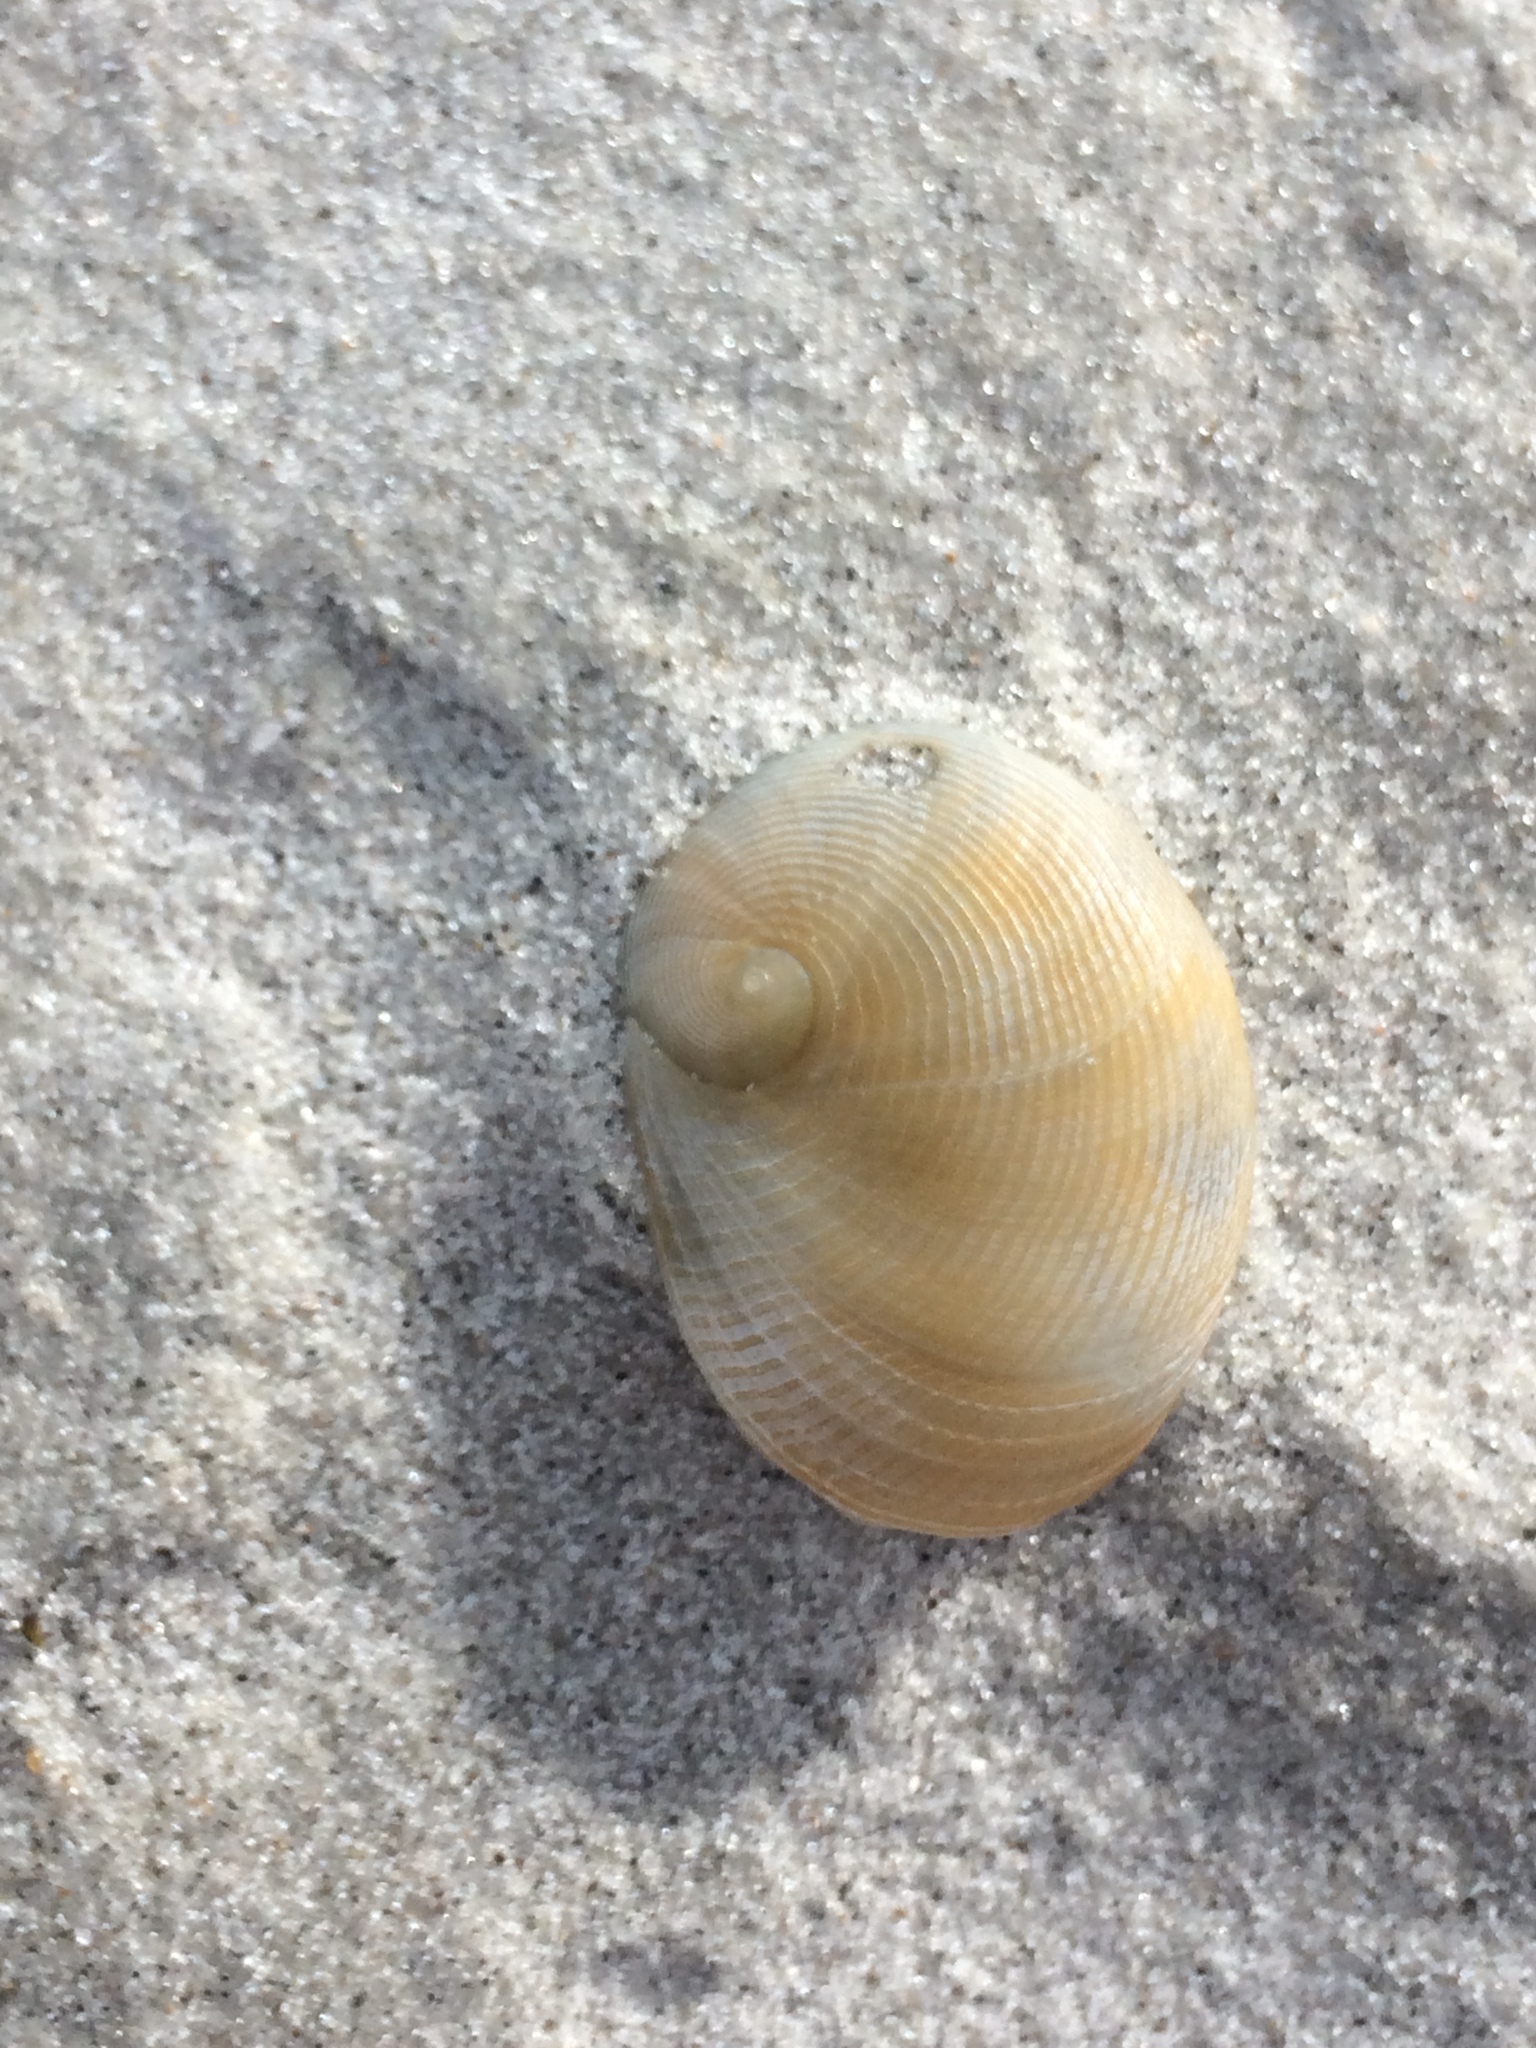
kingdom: Animalia
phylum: Mollusca
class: Gastropoda
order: Littorinimorpha
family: Naticidae
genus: Sinum
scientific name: Sinum perspectivum
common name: White baby ear
